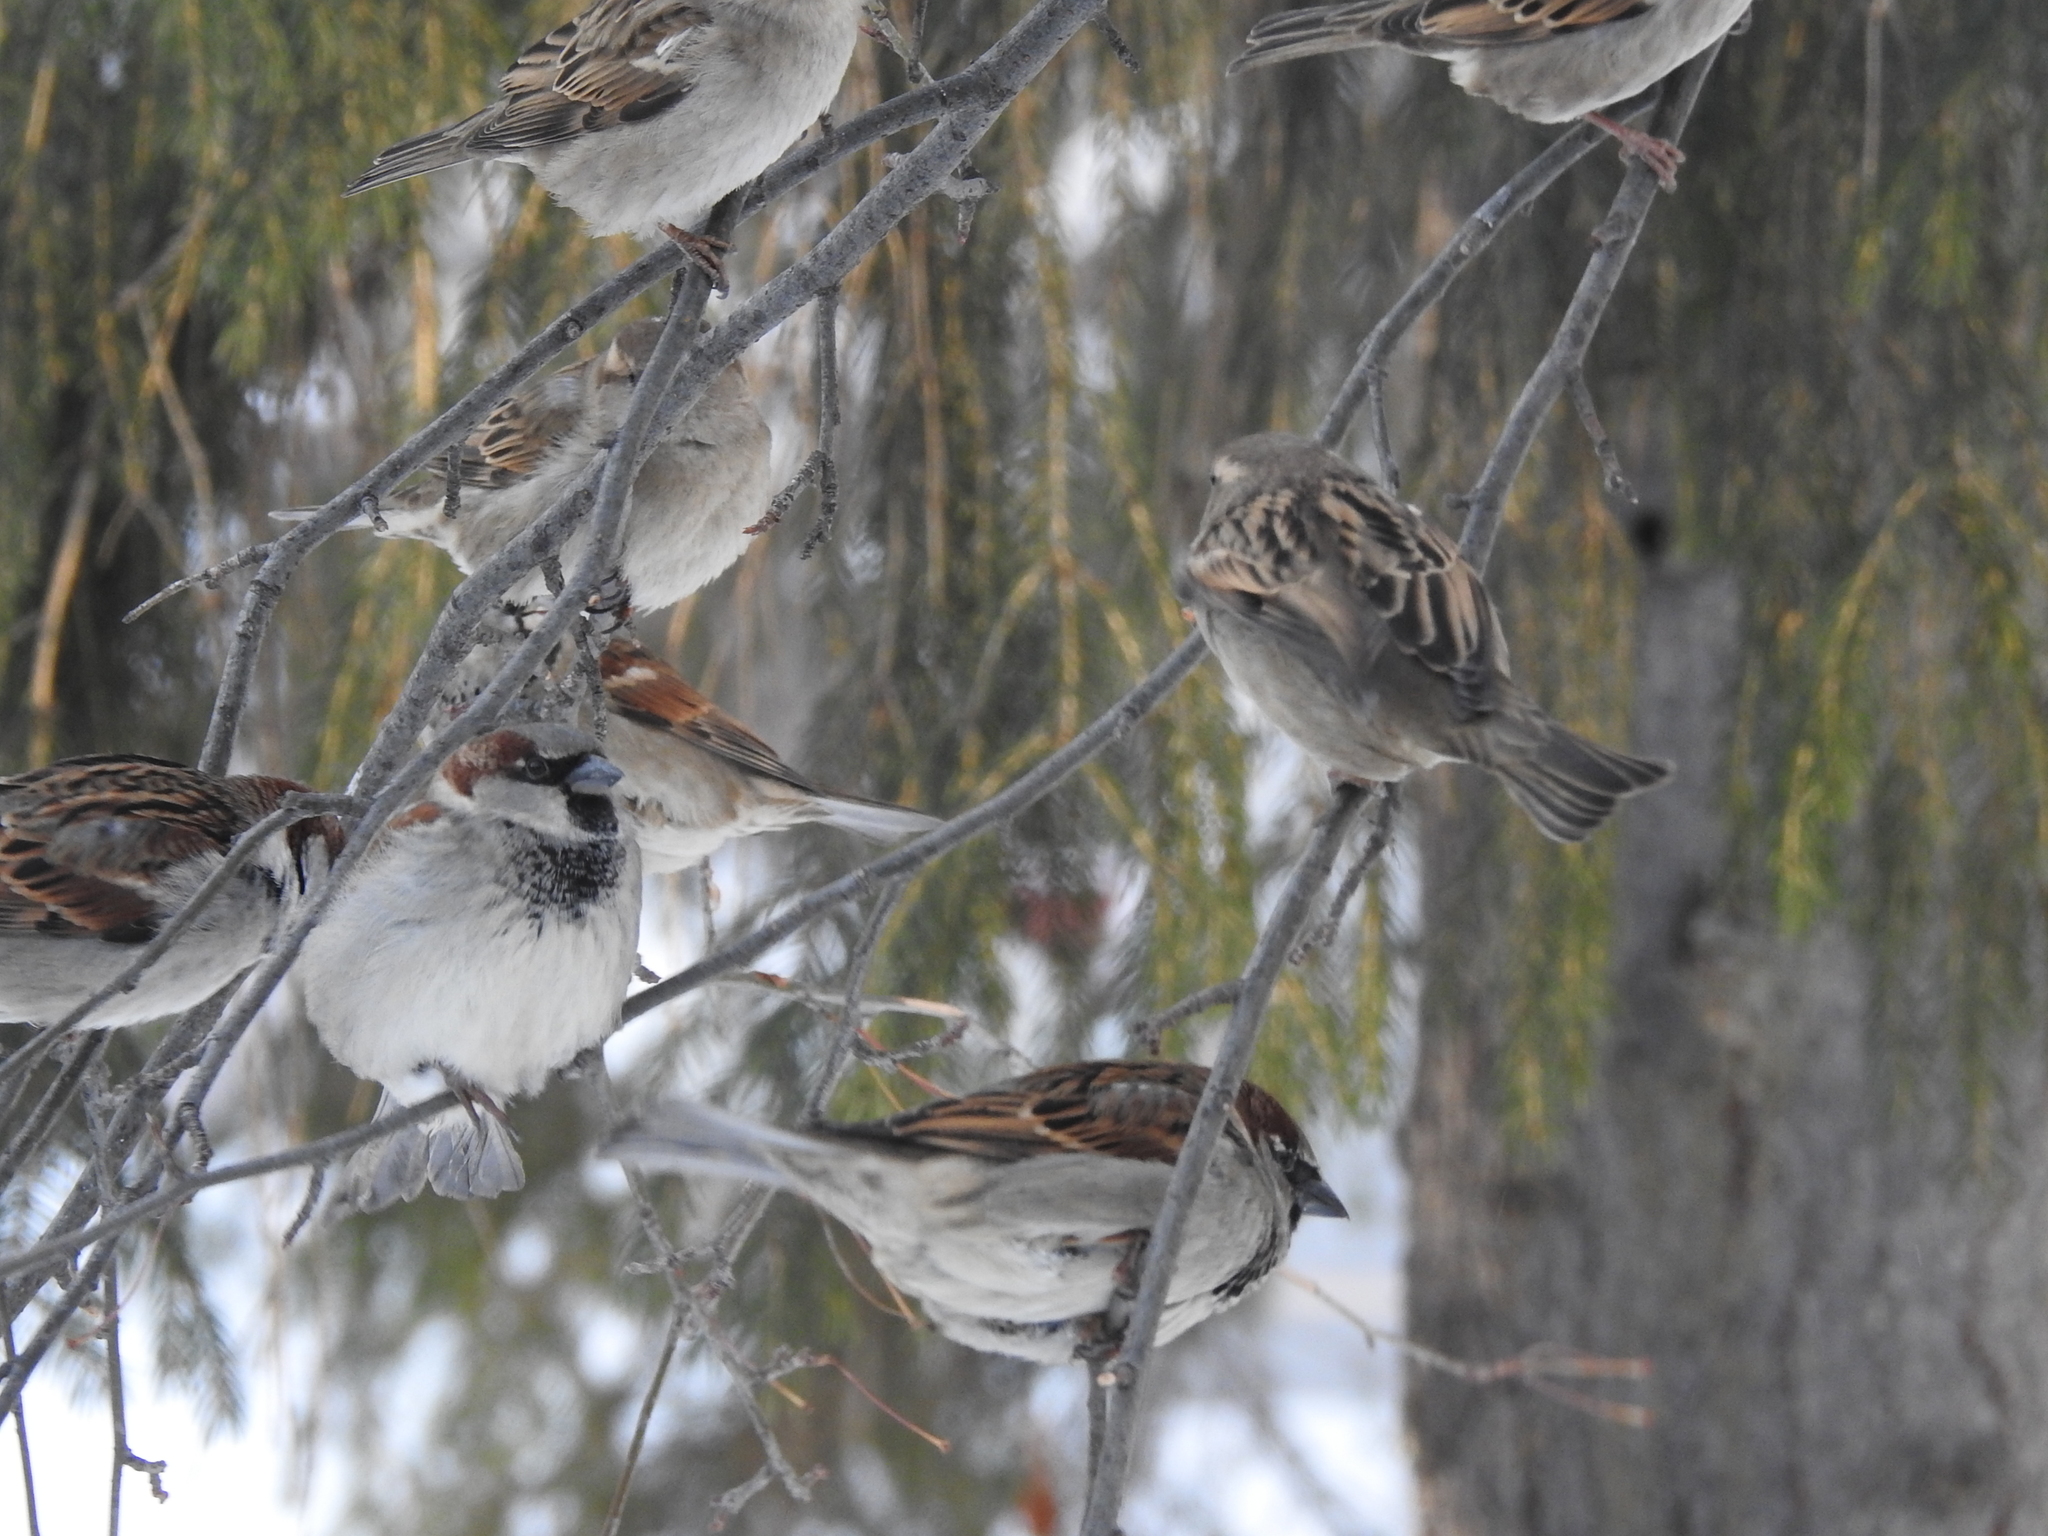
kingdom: Animalia
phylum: Chordata
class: Aves
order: Passeriformes
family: Passeridae
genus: Passer
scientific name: Passer domesticus
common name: House sparrow
